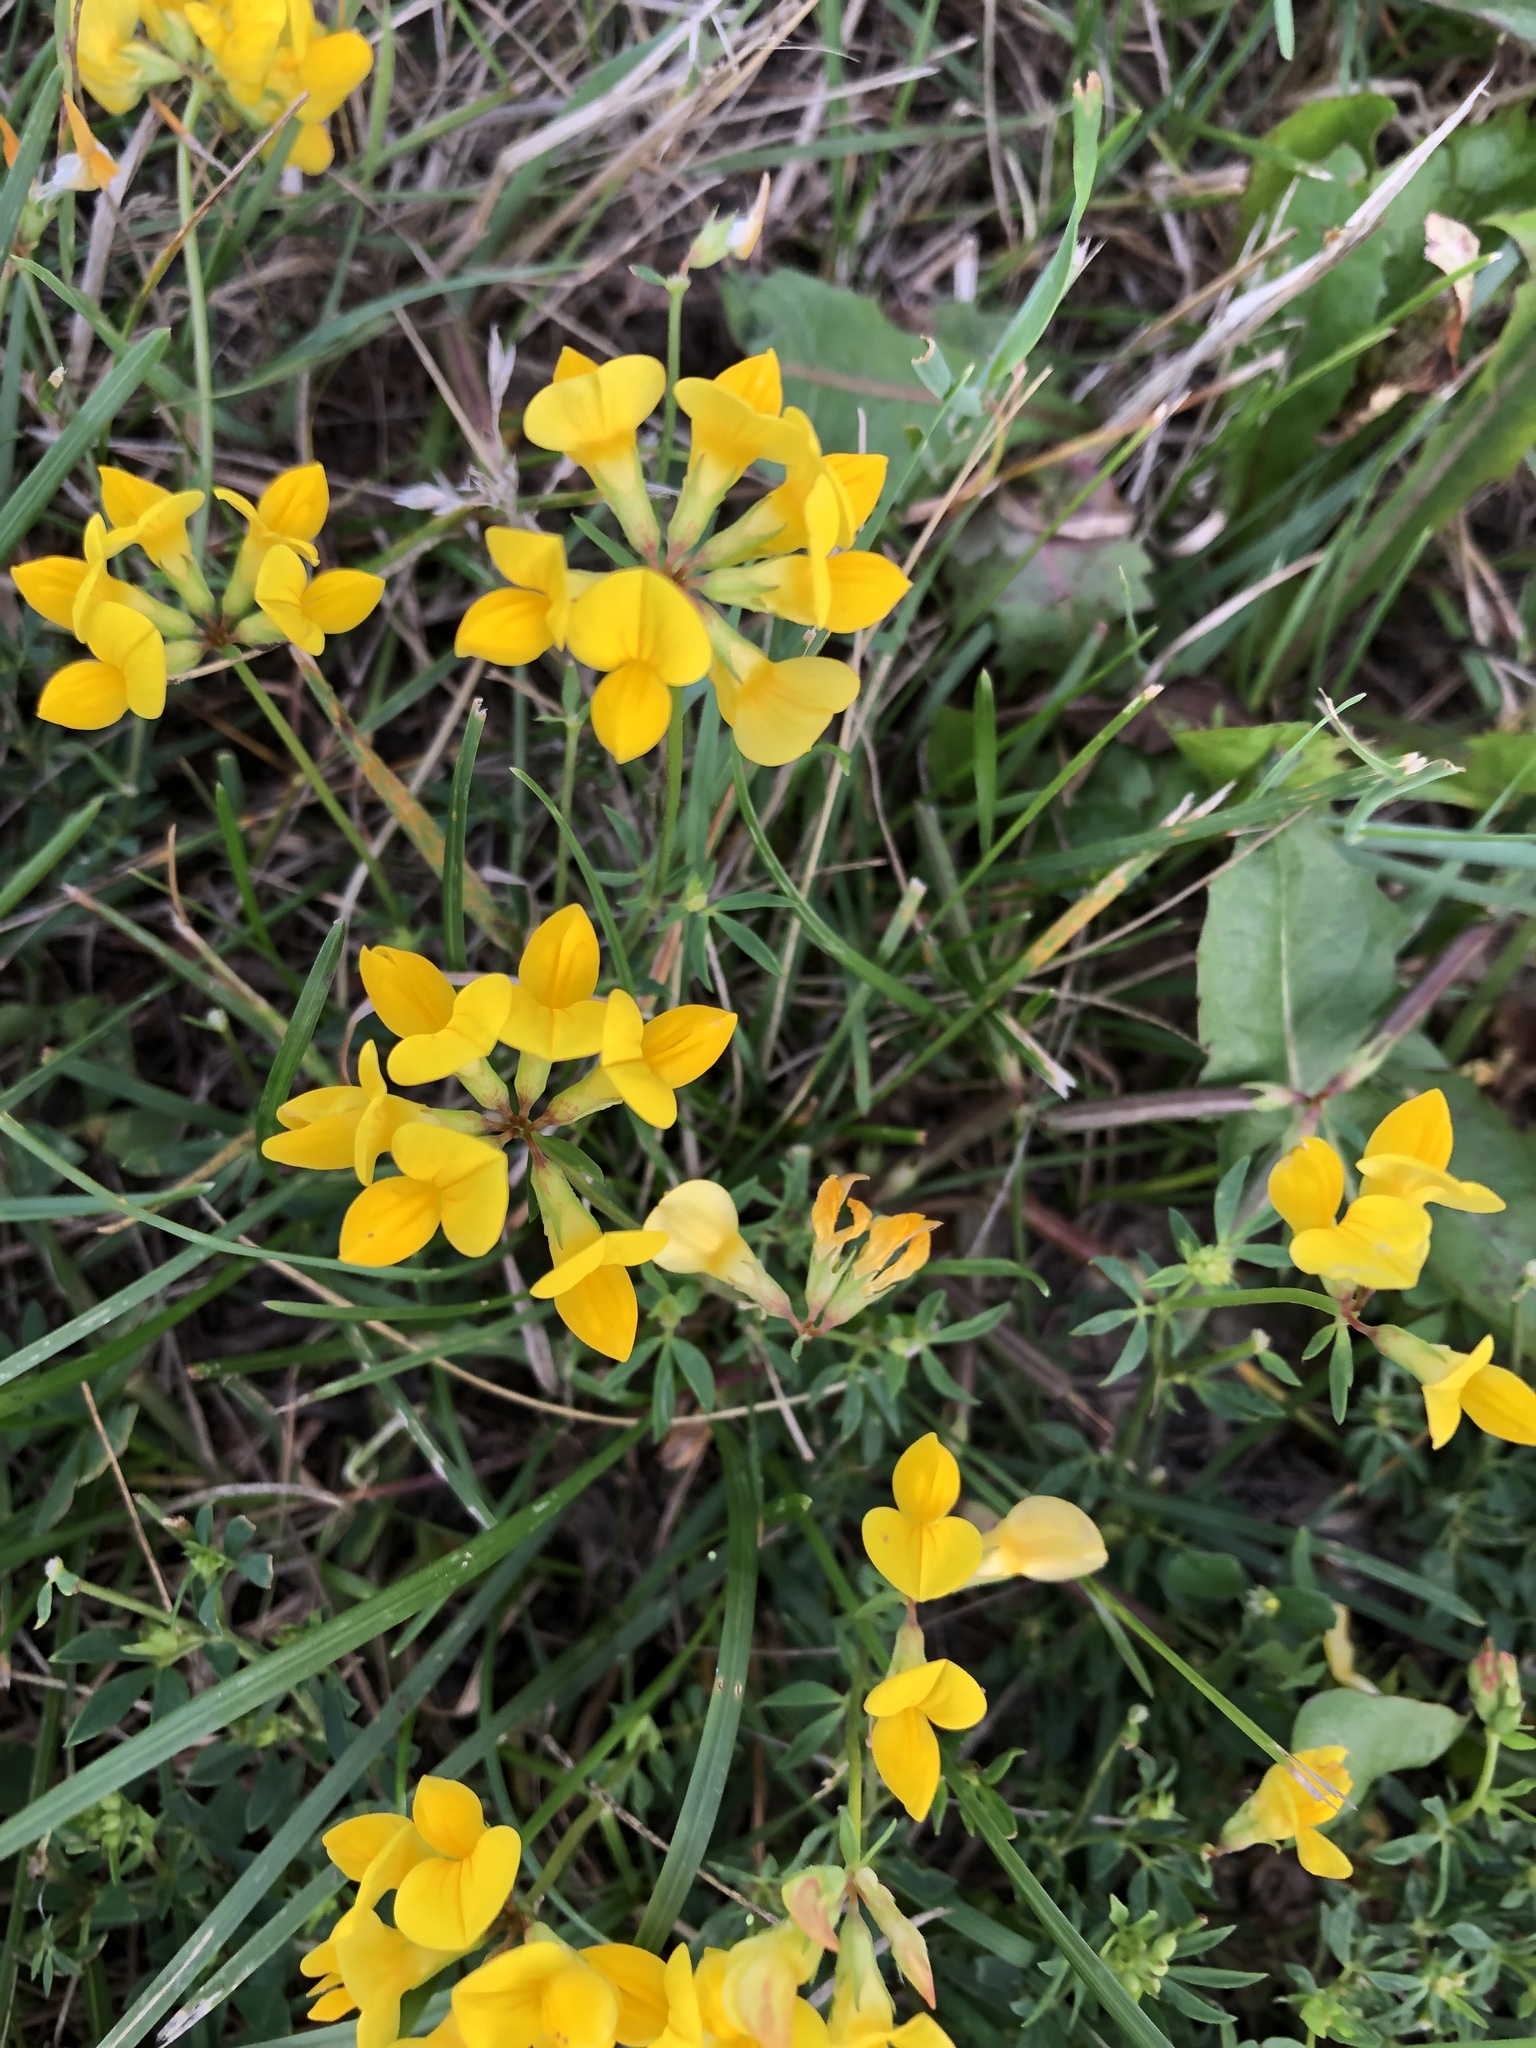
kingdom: Plantae
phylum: Tracheophyta
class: Magnoliopsida
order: Fabales
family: Fabaceae
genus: Lotus
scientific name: Lotus corniculatus
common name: Common bird's-foot-trefoil
